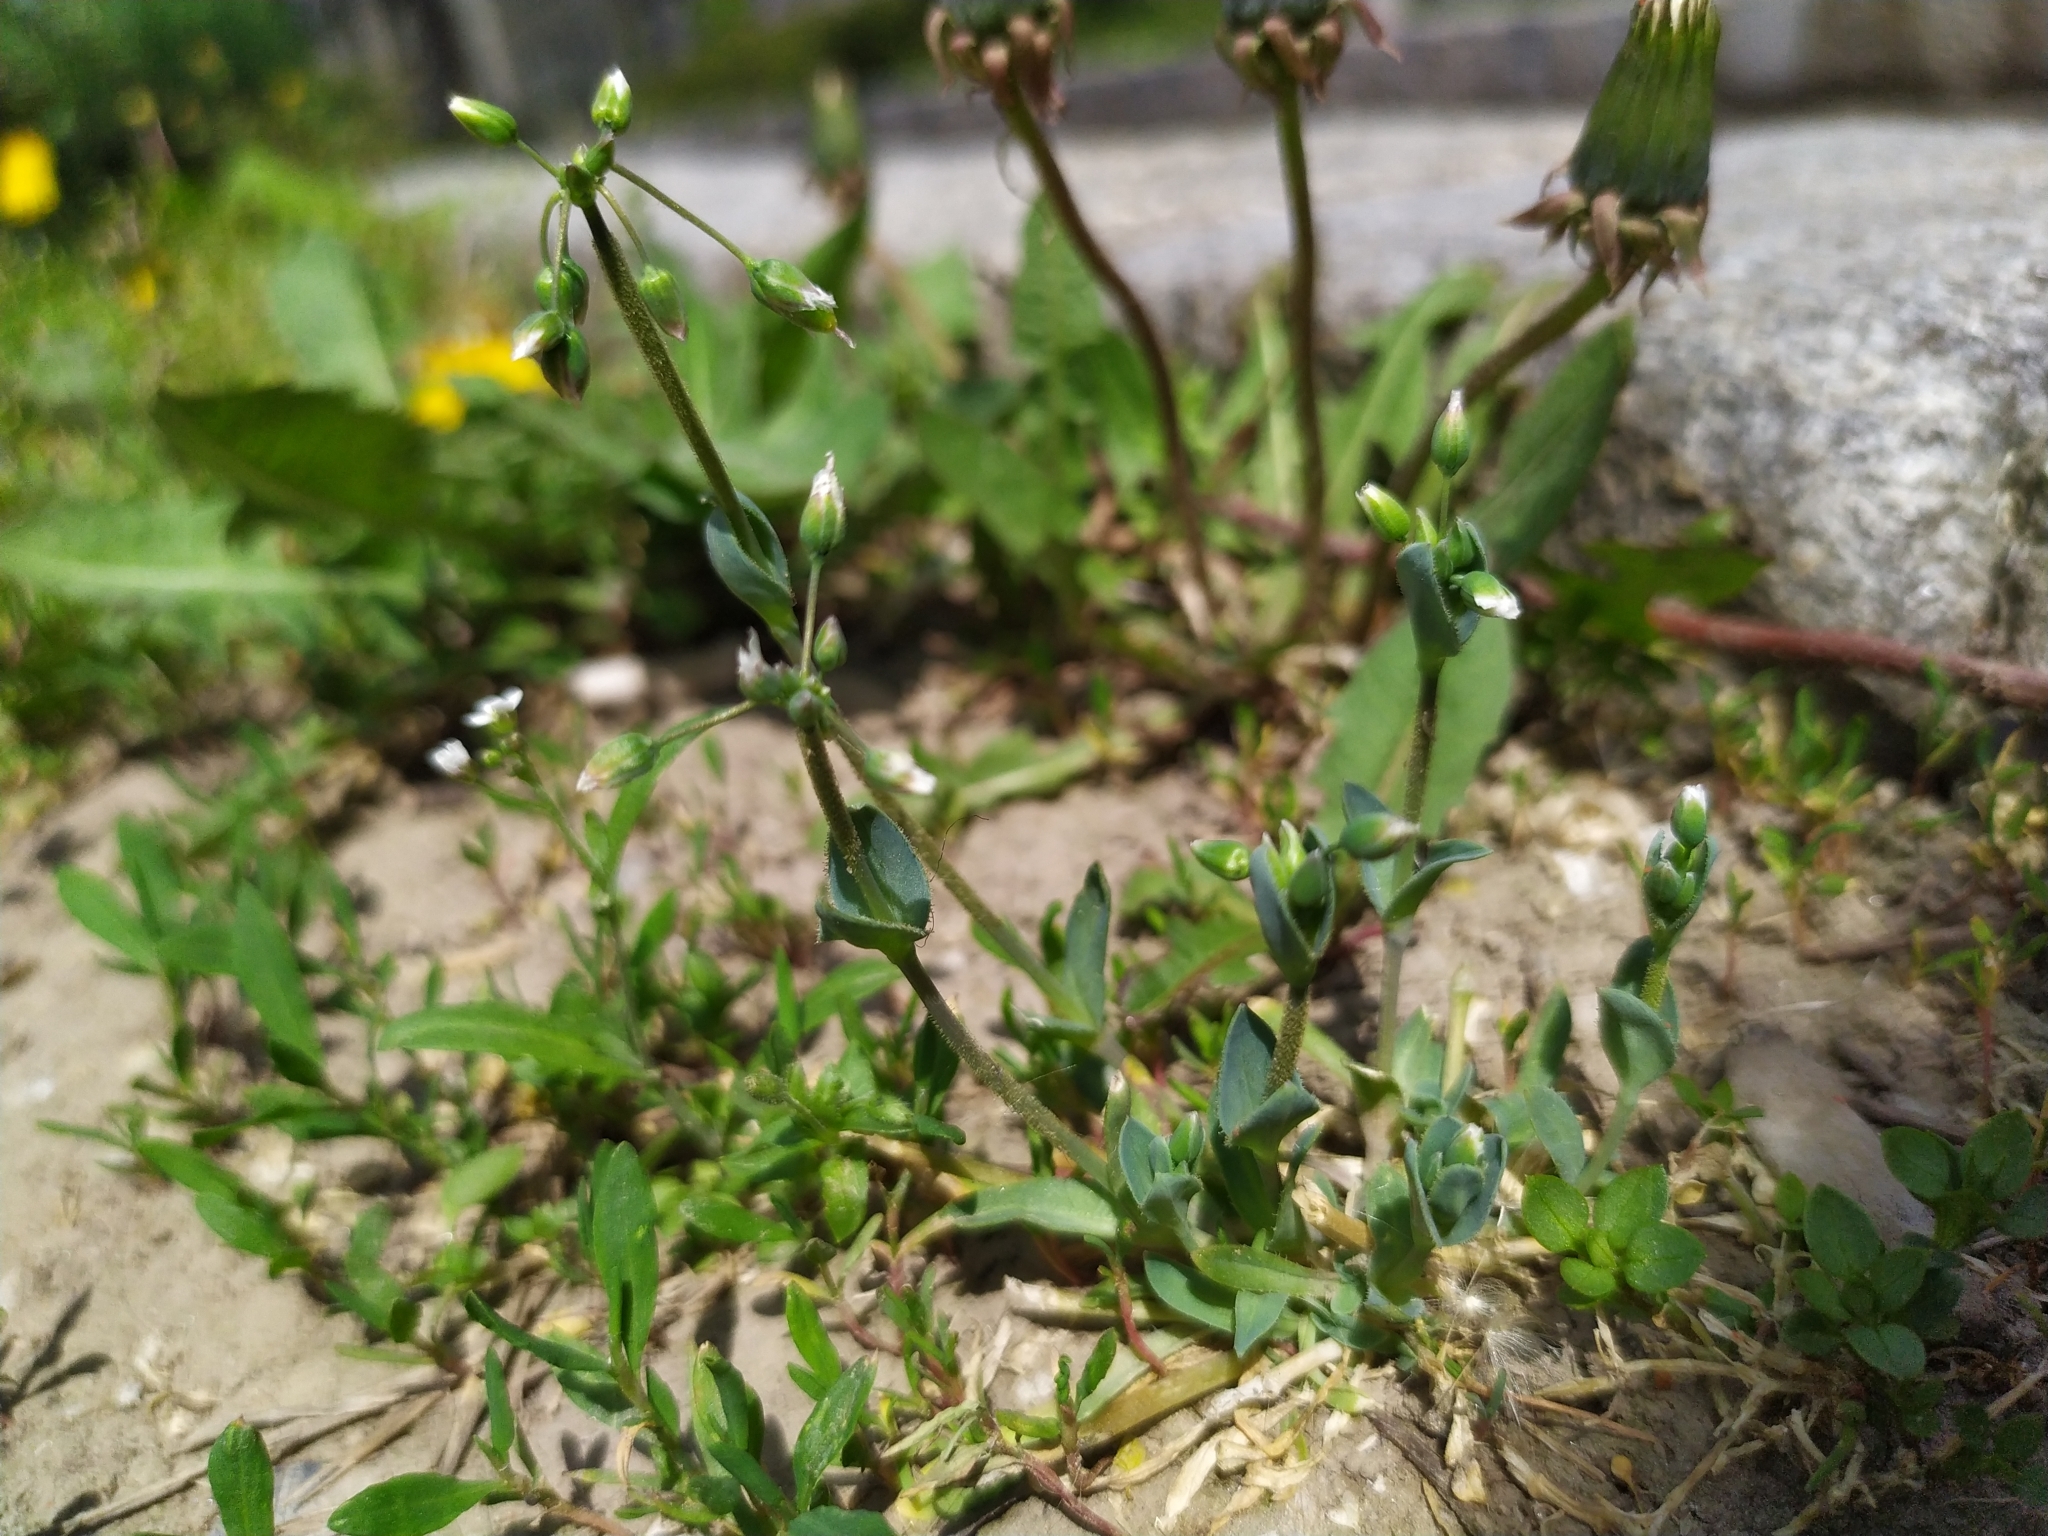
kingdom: Plantae
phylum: Tracheophyta
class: Magnoliopsida
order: Caryophyllales
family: Caryophyllaceae
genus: Holosteum
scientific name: Holosteum umbellatum
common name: Jagged chickweed
